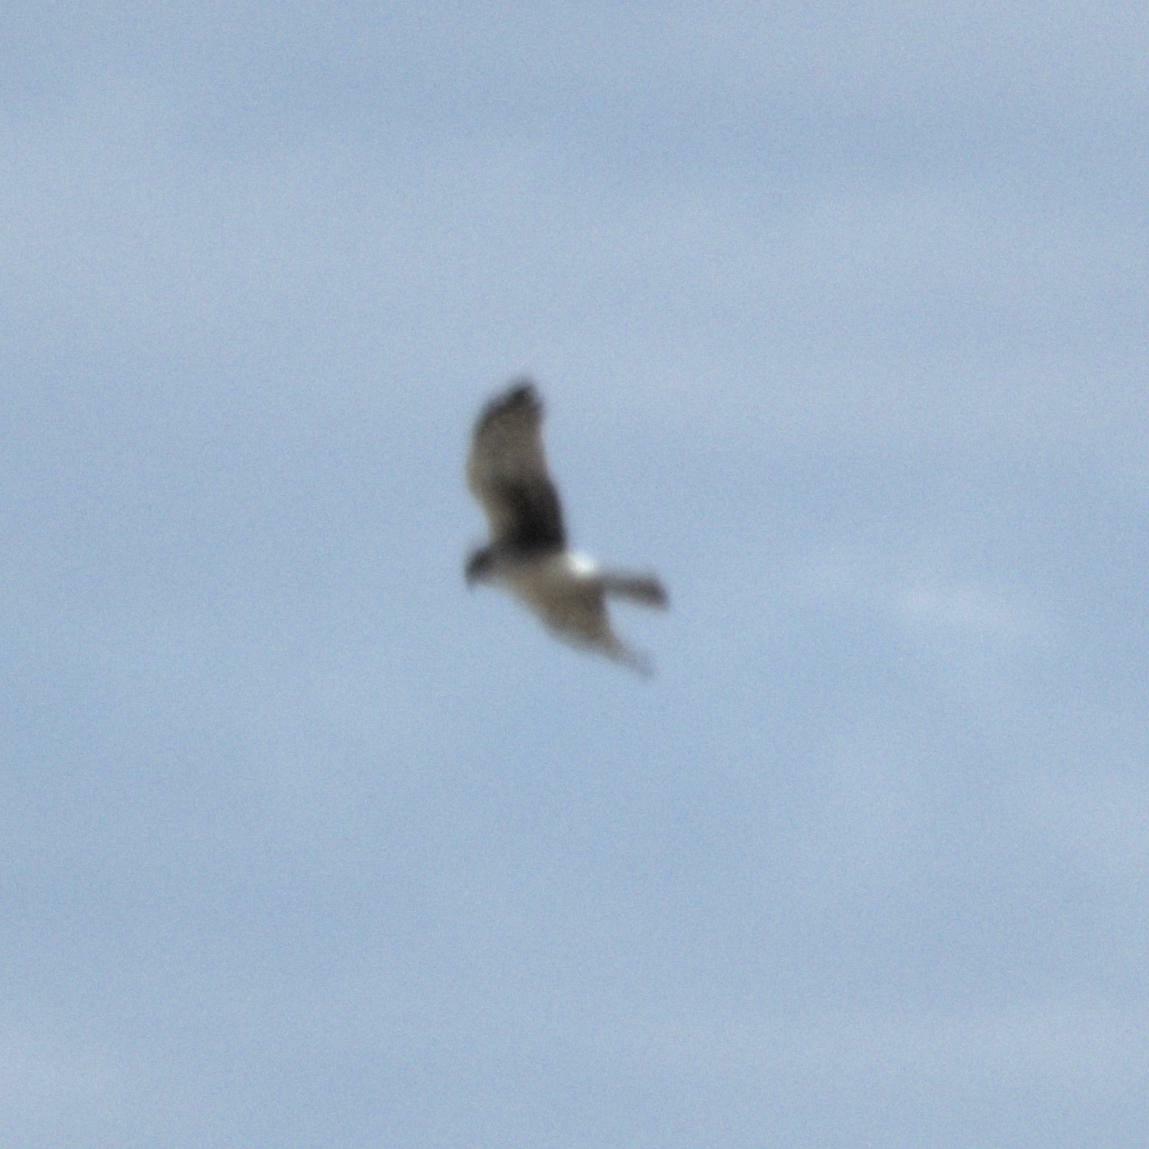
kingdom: Animalia
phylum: Chordata
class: Aves
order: Accipitriformes
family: Accipitridae
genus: Circus
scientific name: Circus cyaneus
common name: Hen harrier
